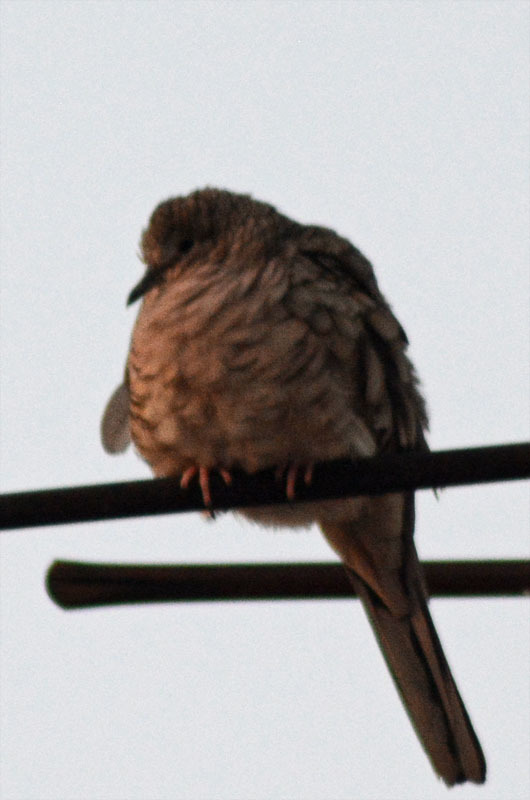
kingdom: Animalia
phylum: Chordata
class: Aves
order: Columbiformes
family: Columbidae
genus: Columbina
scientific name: Columbina inca
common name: Inca dove
